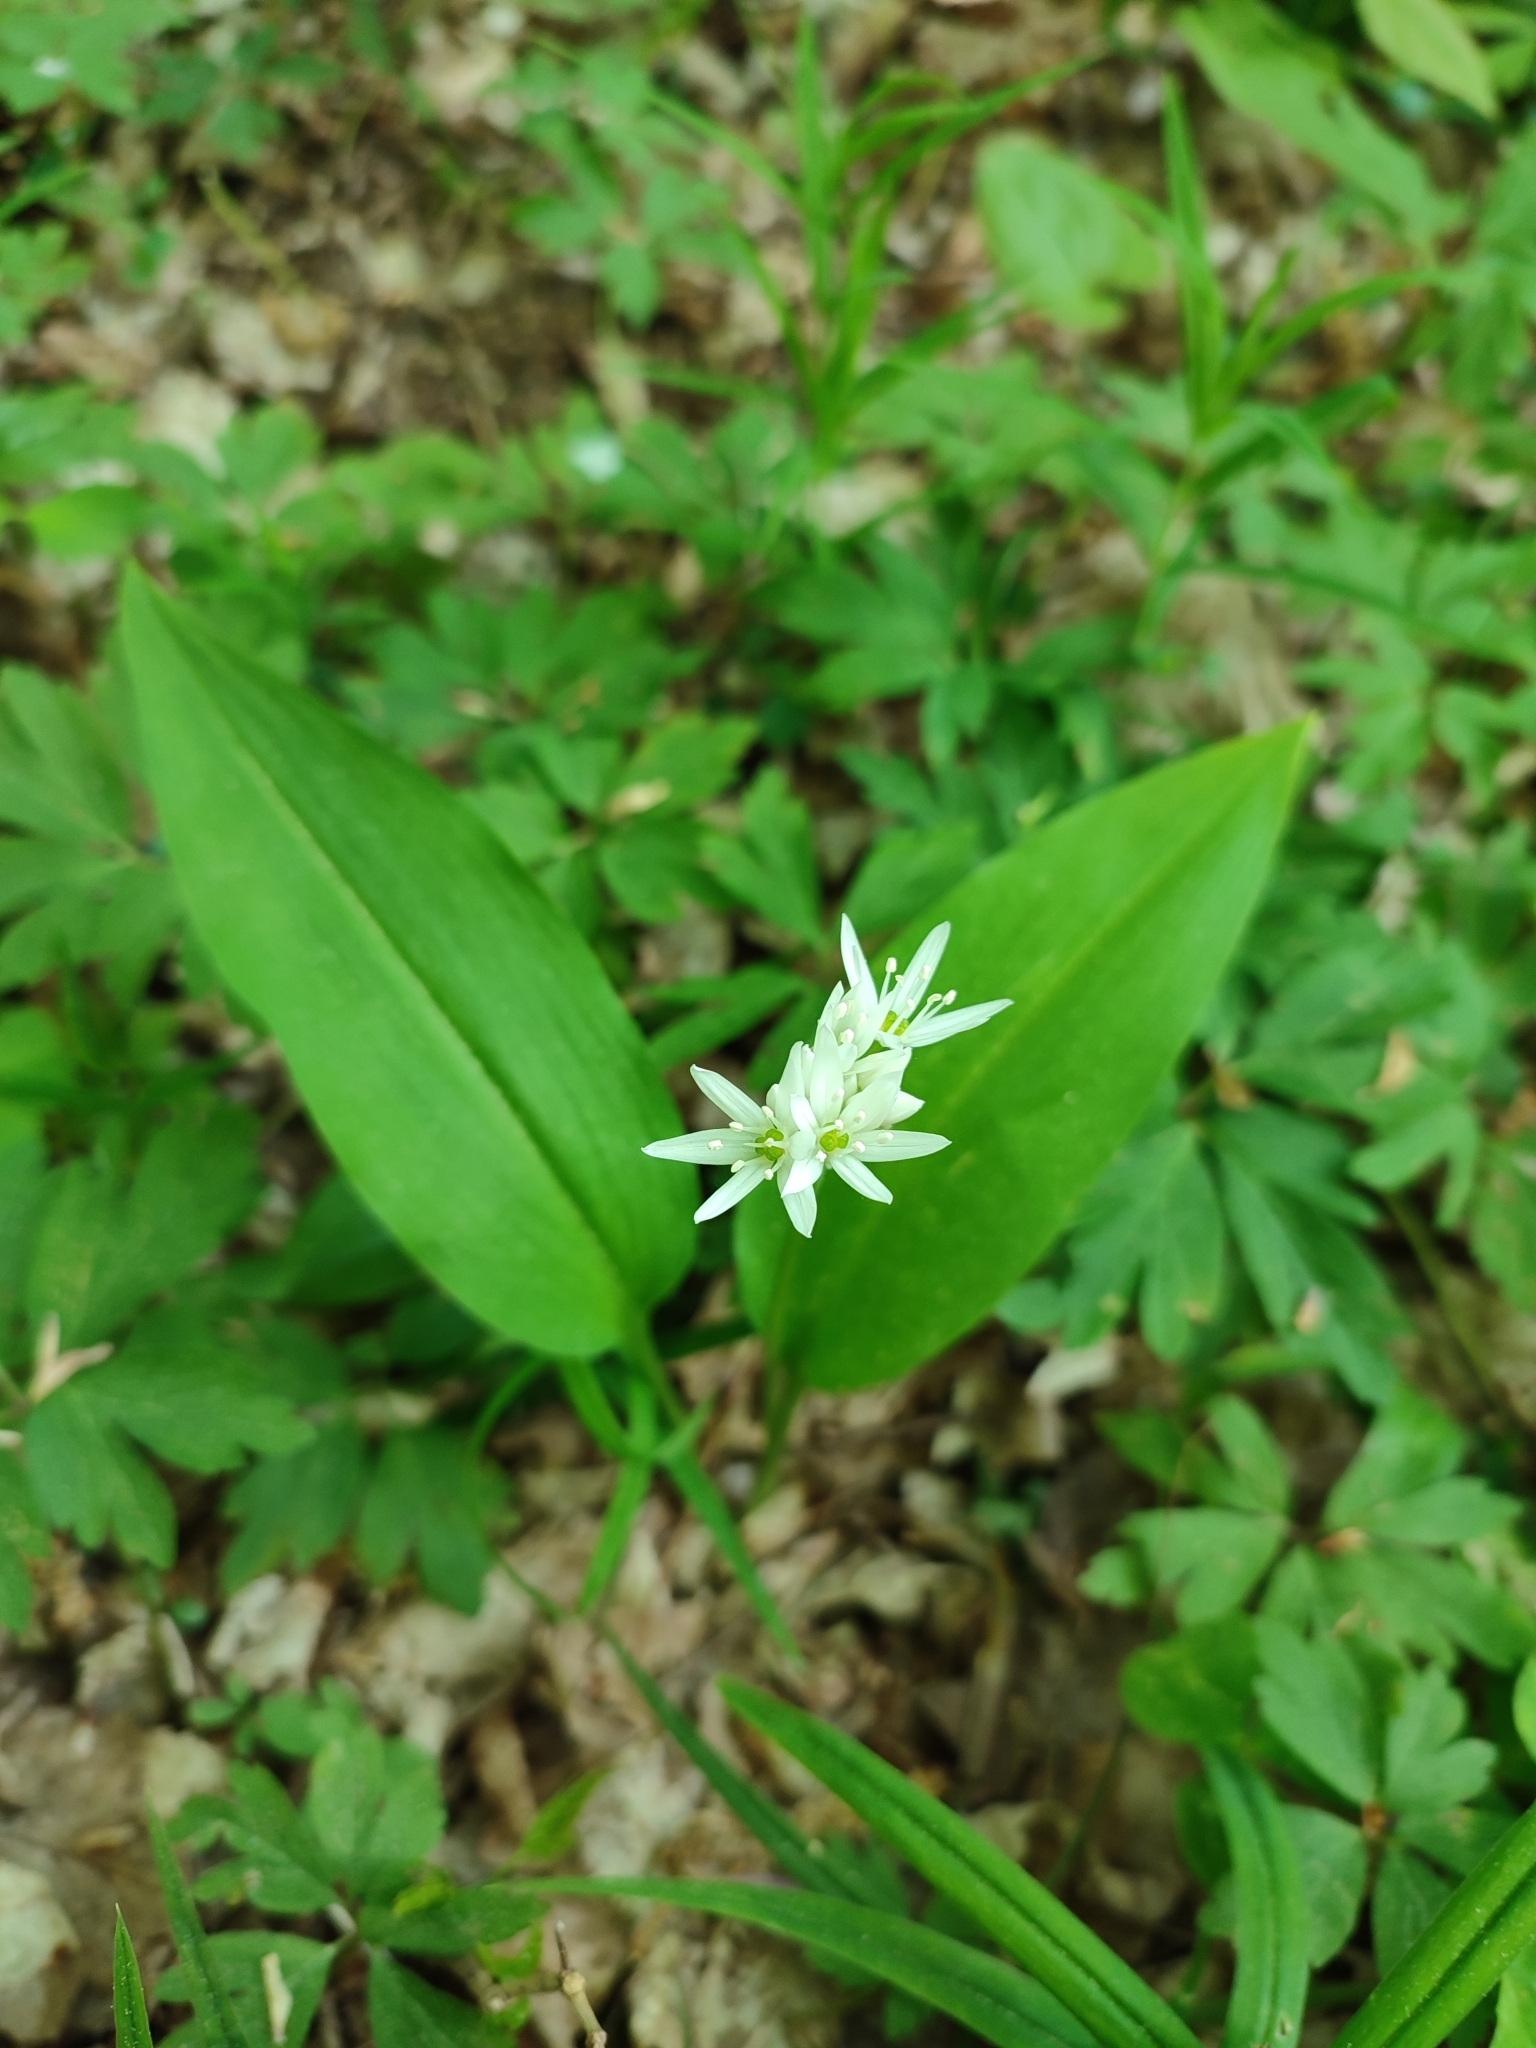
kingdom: Plantae
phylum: Tracheophyta
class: Liliopsida
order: Asparagales
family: Amaryllidaceae
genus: Allium
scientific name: Allium ursinum
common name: Ramsons
